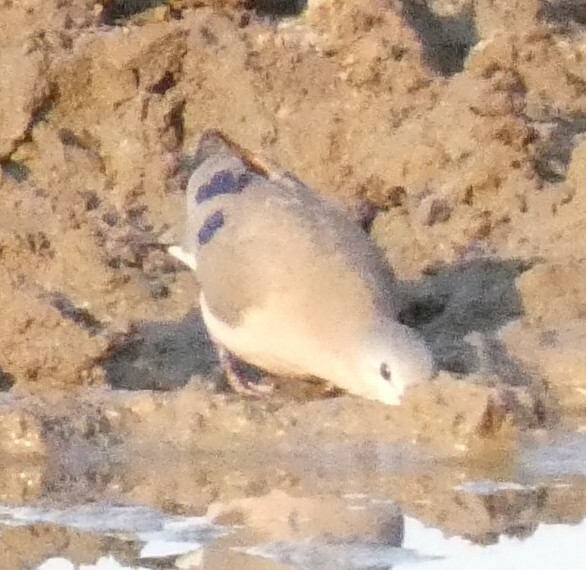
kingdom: Animalia
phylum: Chordata
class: Aves
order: Columbiformes
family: Columbidae
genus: Turtur
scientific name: Turtur chalcospilos
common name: Emerald-spotted wood dove
